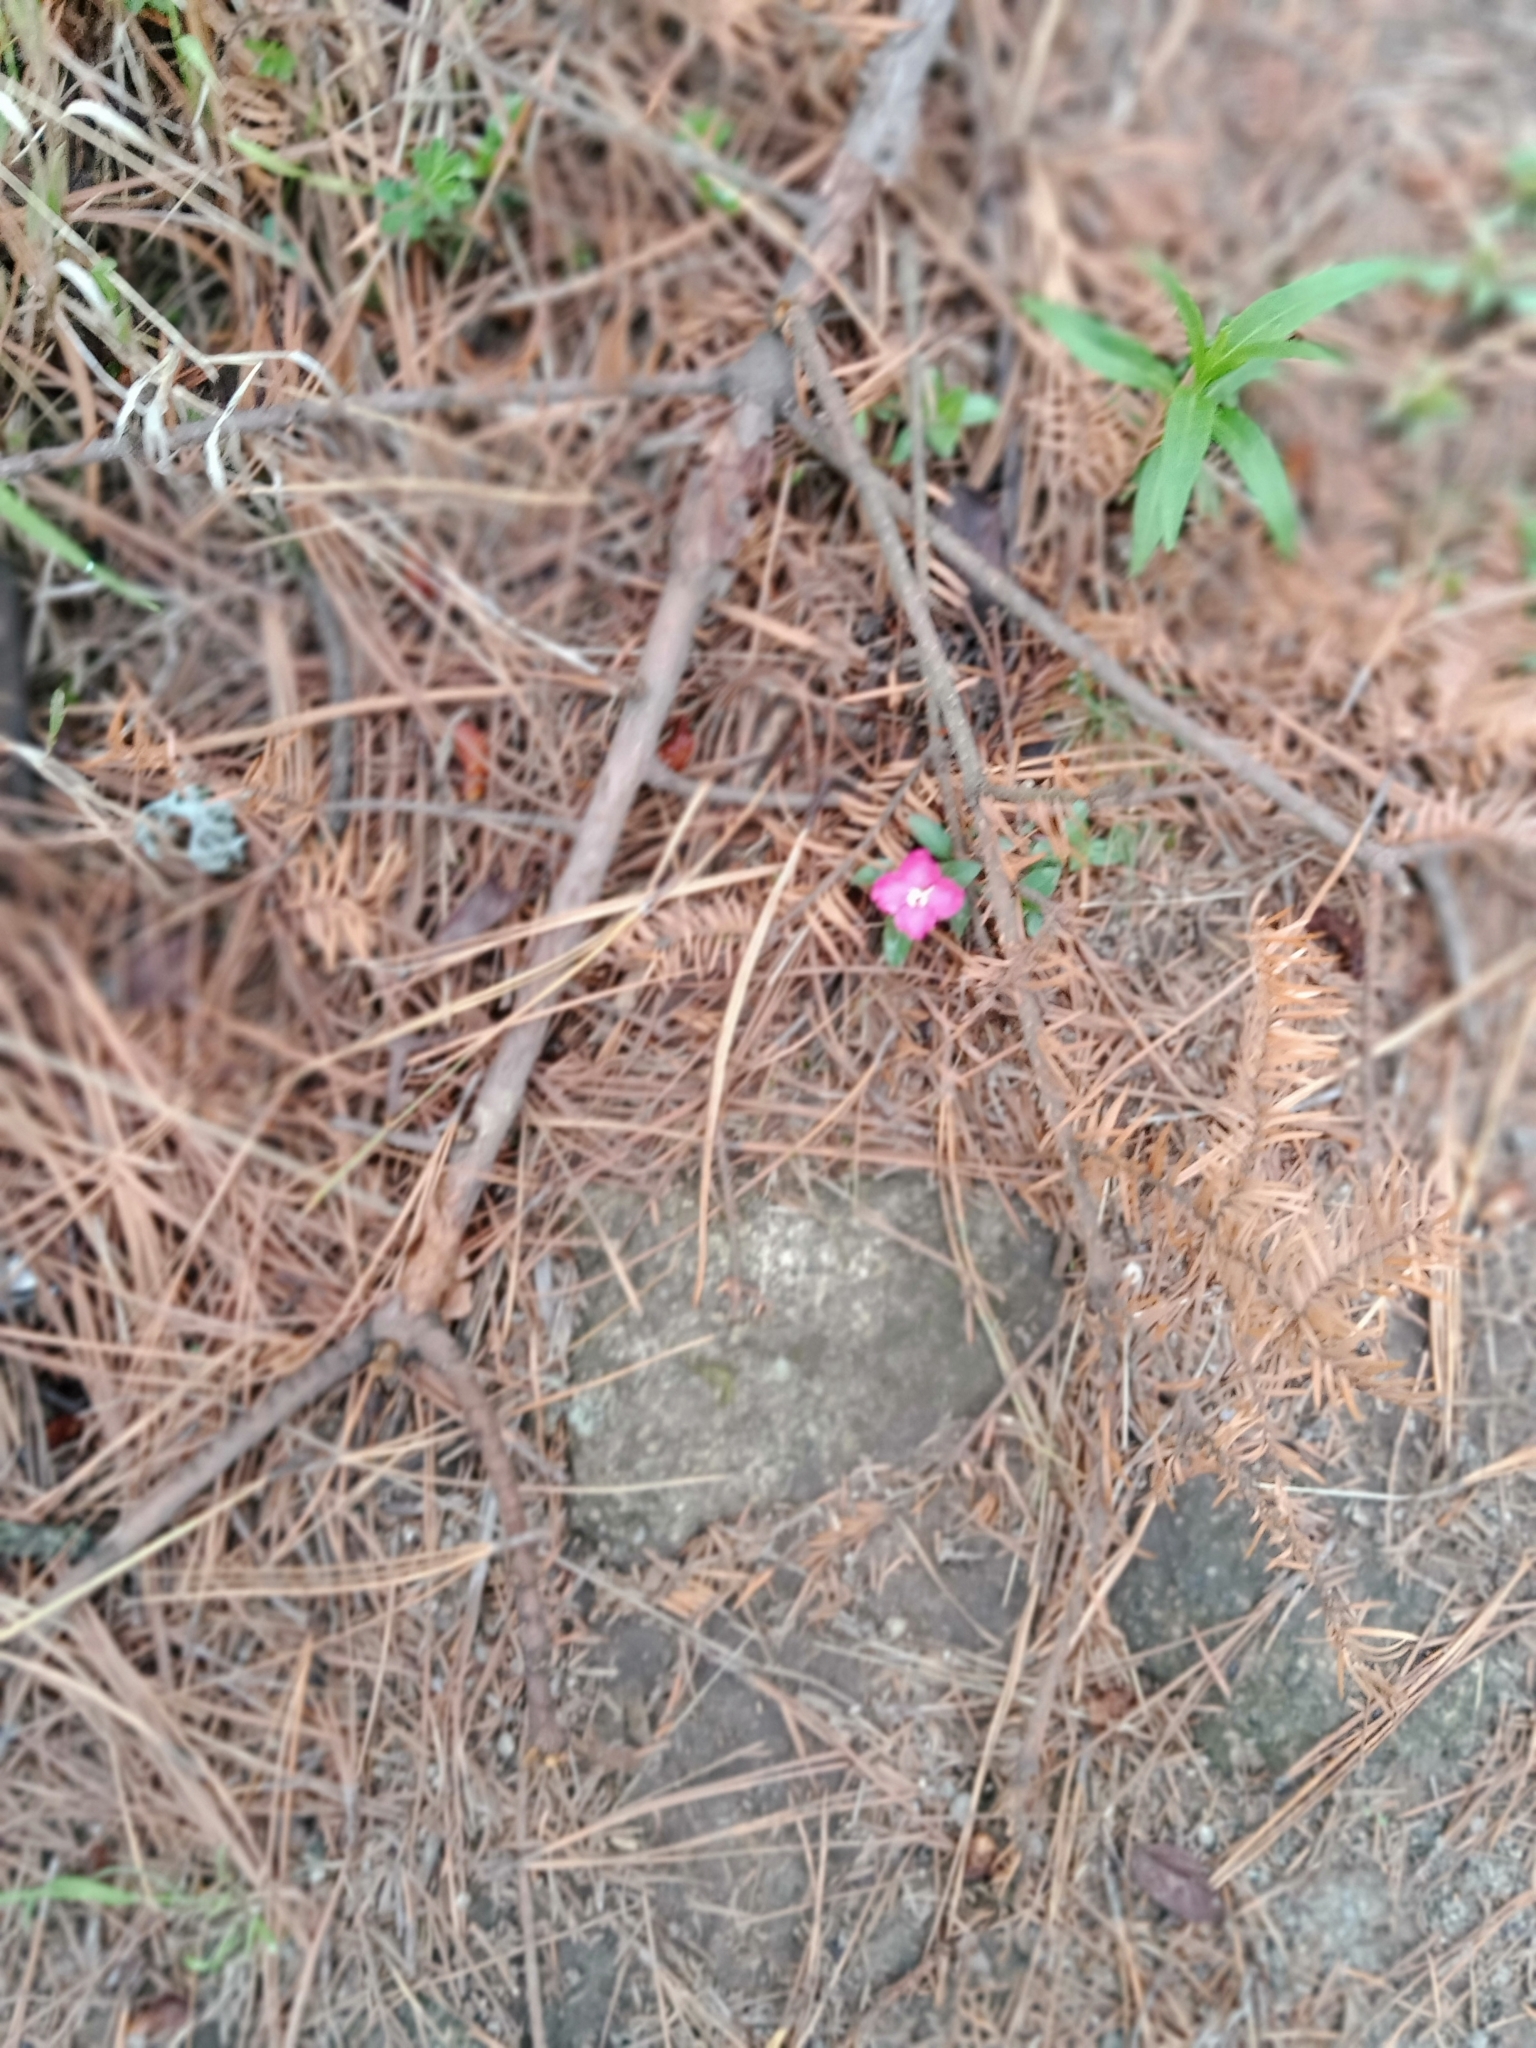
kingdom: Plantae
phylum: Tracheophyta
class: Magnoliopsida
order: Myrtales
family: Onagraceae
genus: Oenothera
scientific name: Oenothera deserticola
